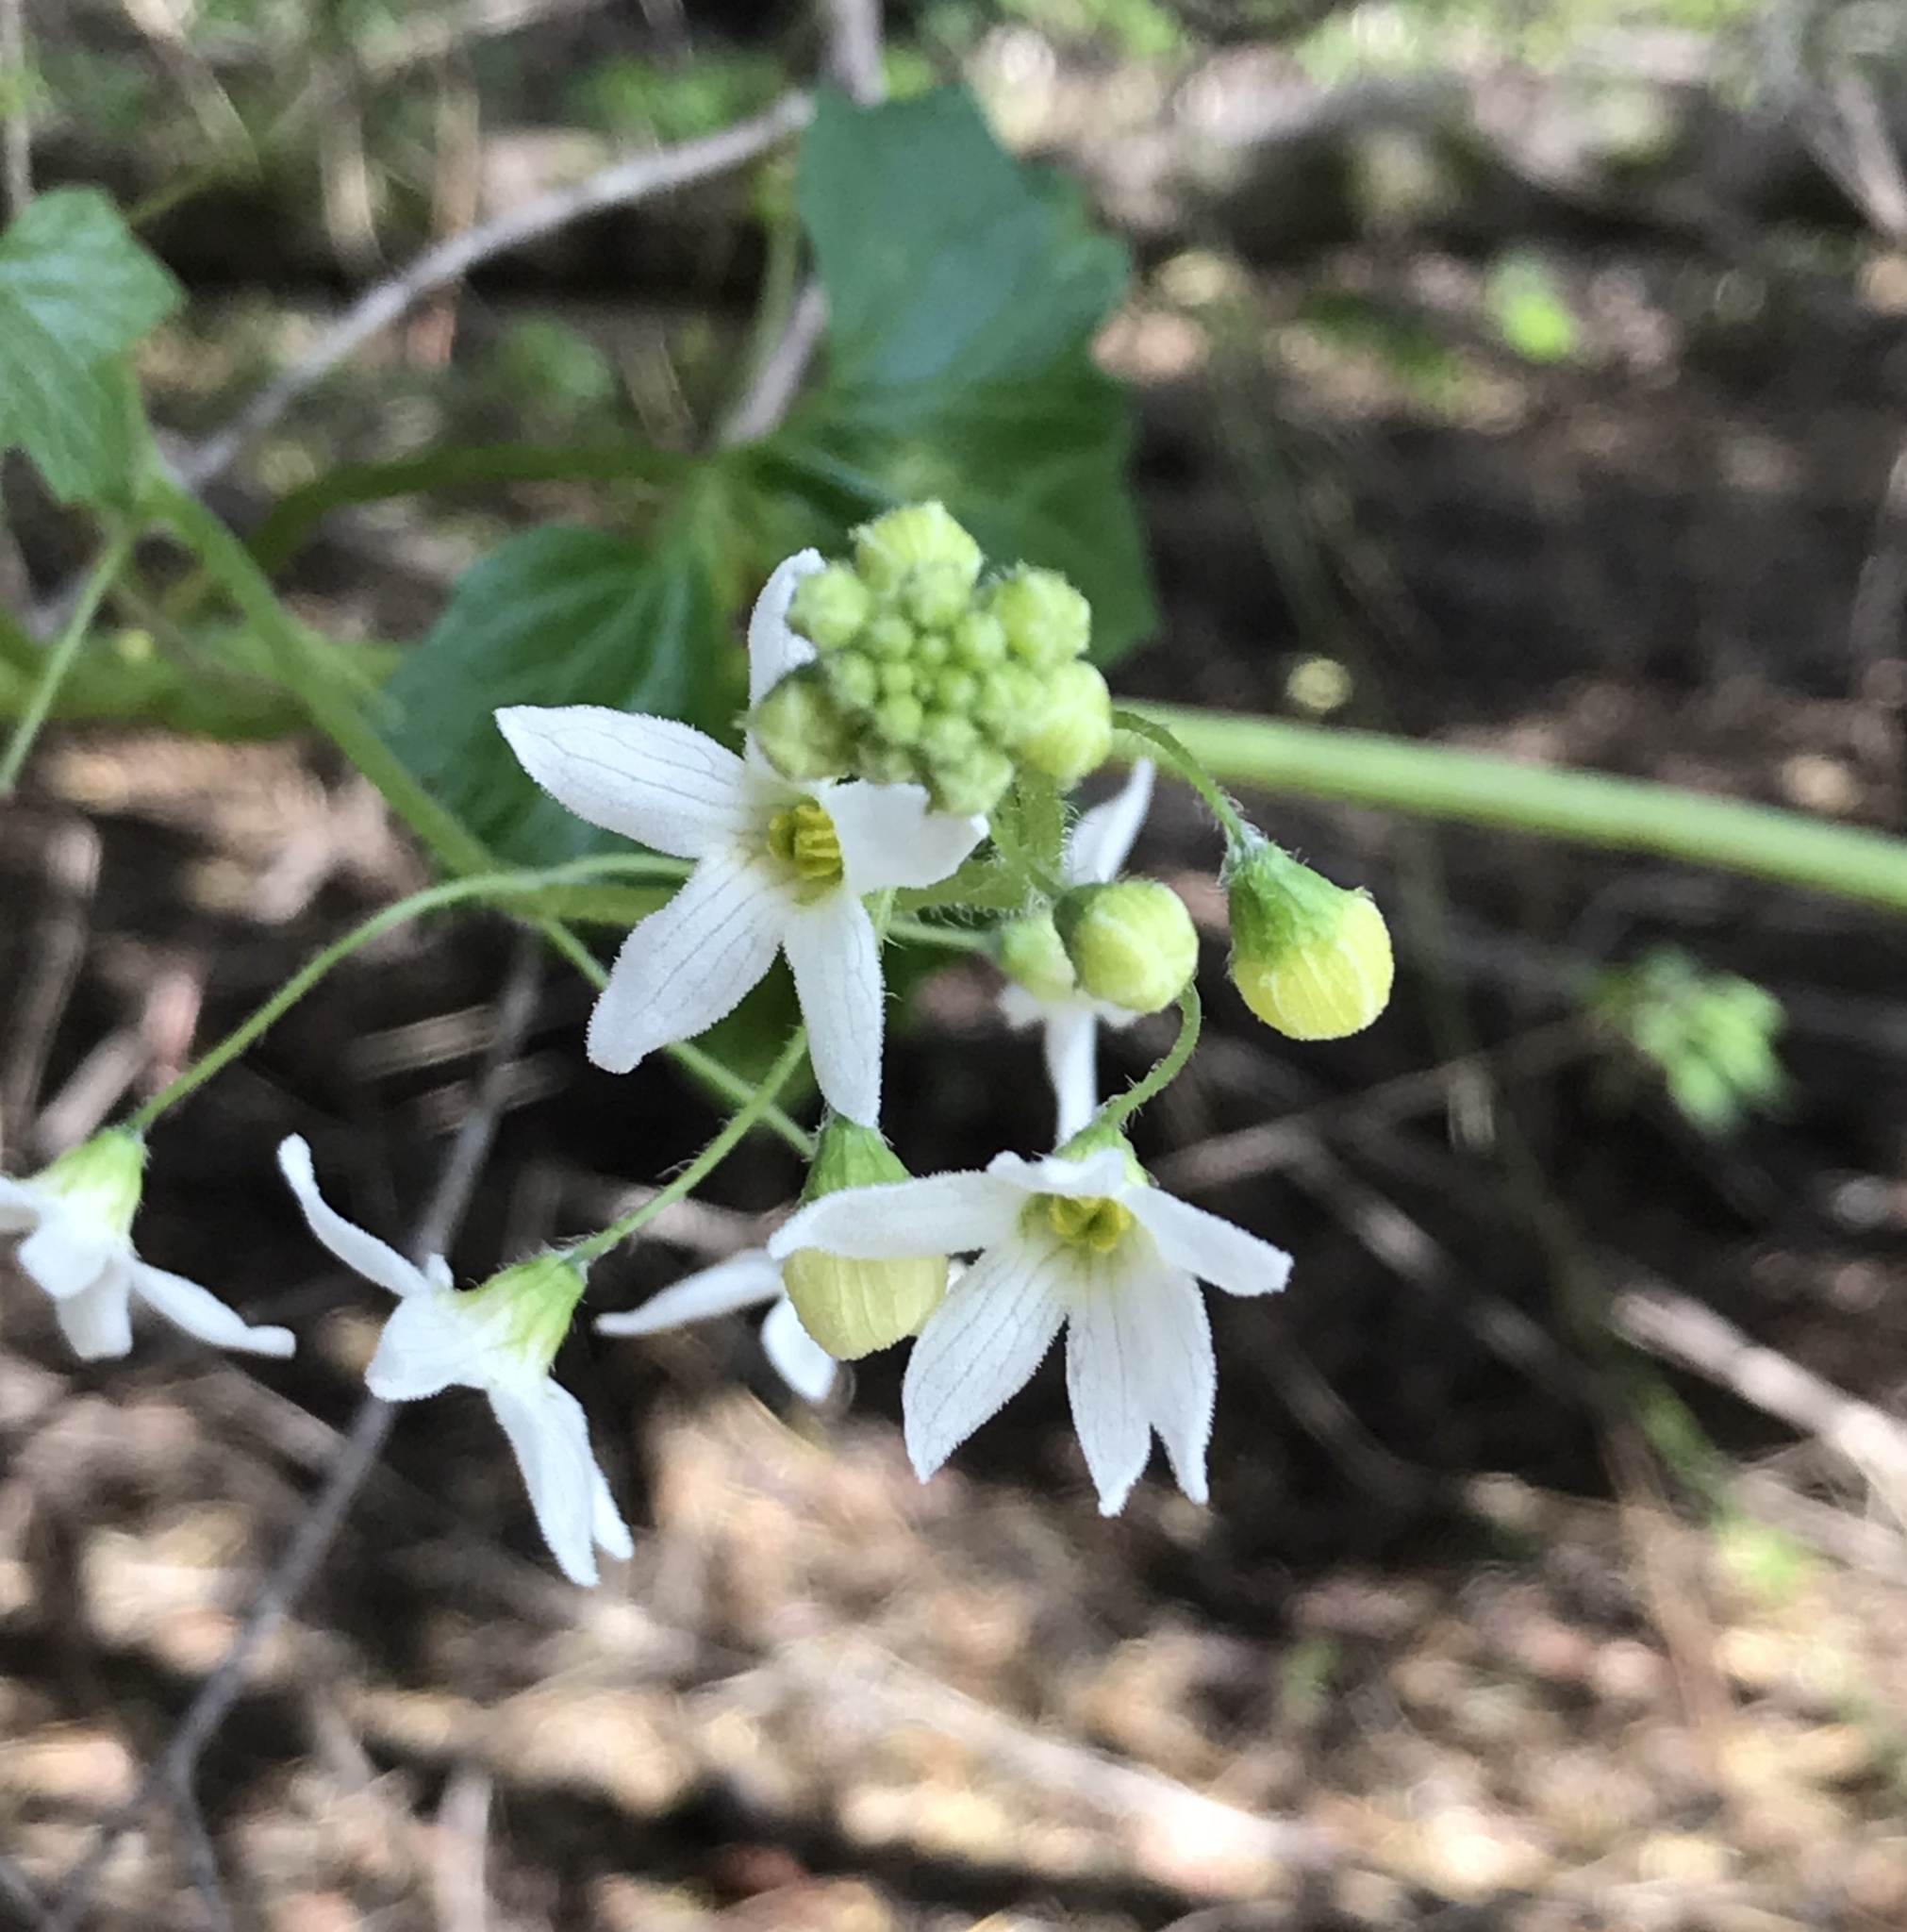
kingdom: Plantae
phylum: Tracheophyta
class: Magnoliopsida
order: Cucurbitales
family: Cucurbitaceae
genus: Marah
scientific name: Marah oregana
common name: Coastal manroot
